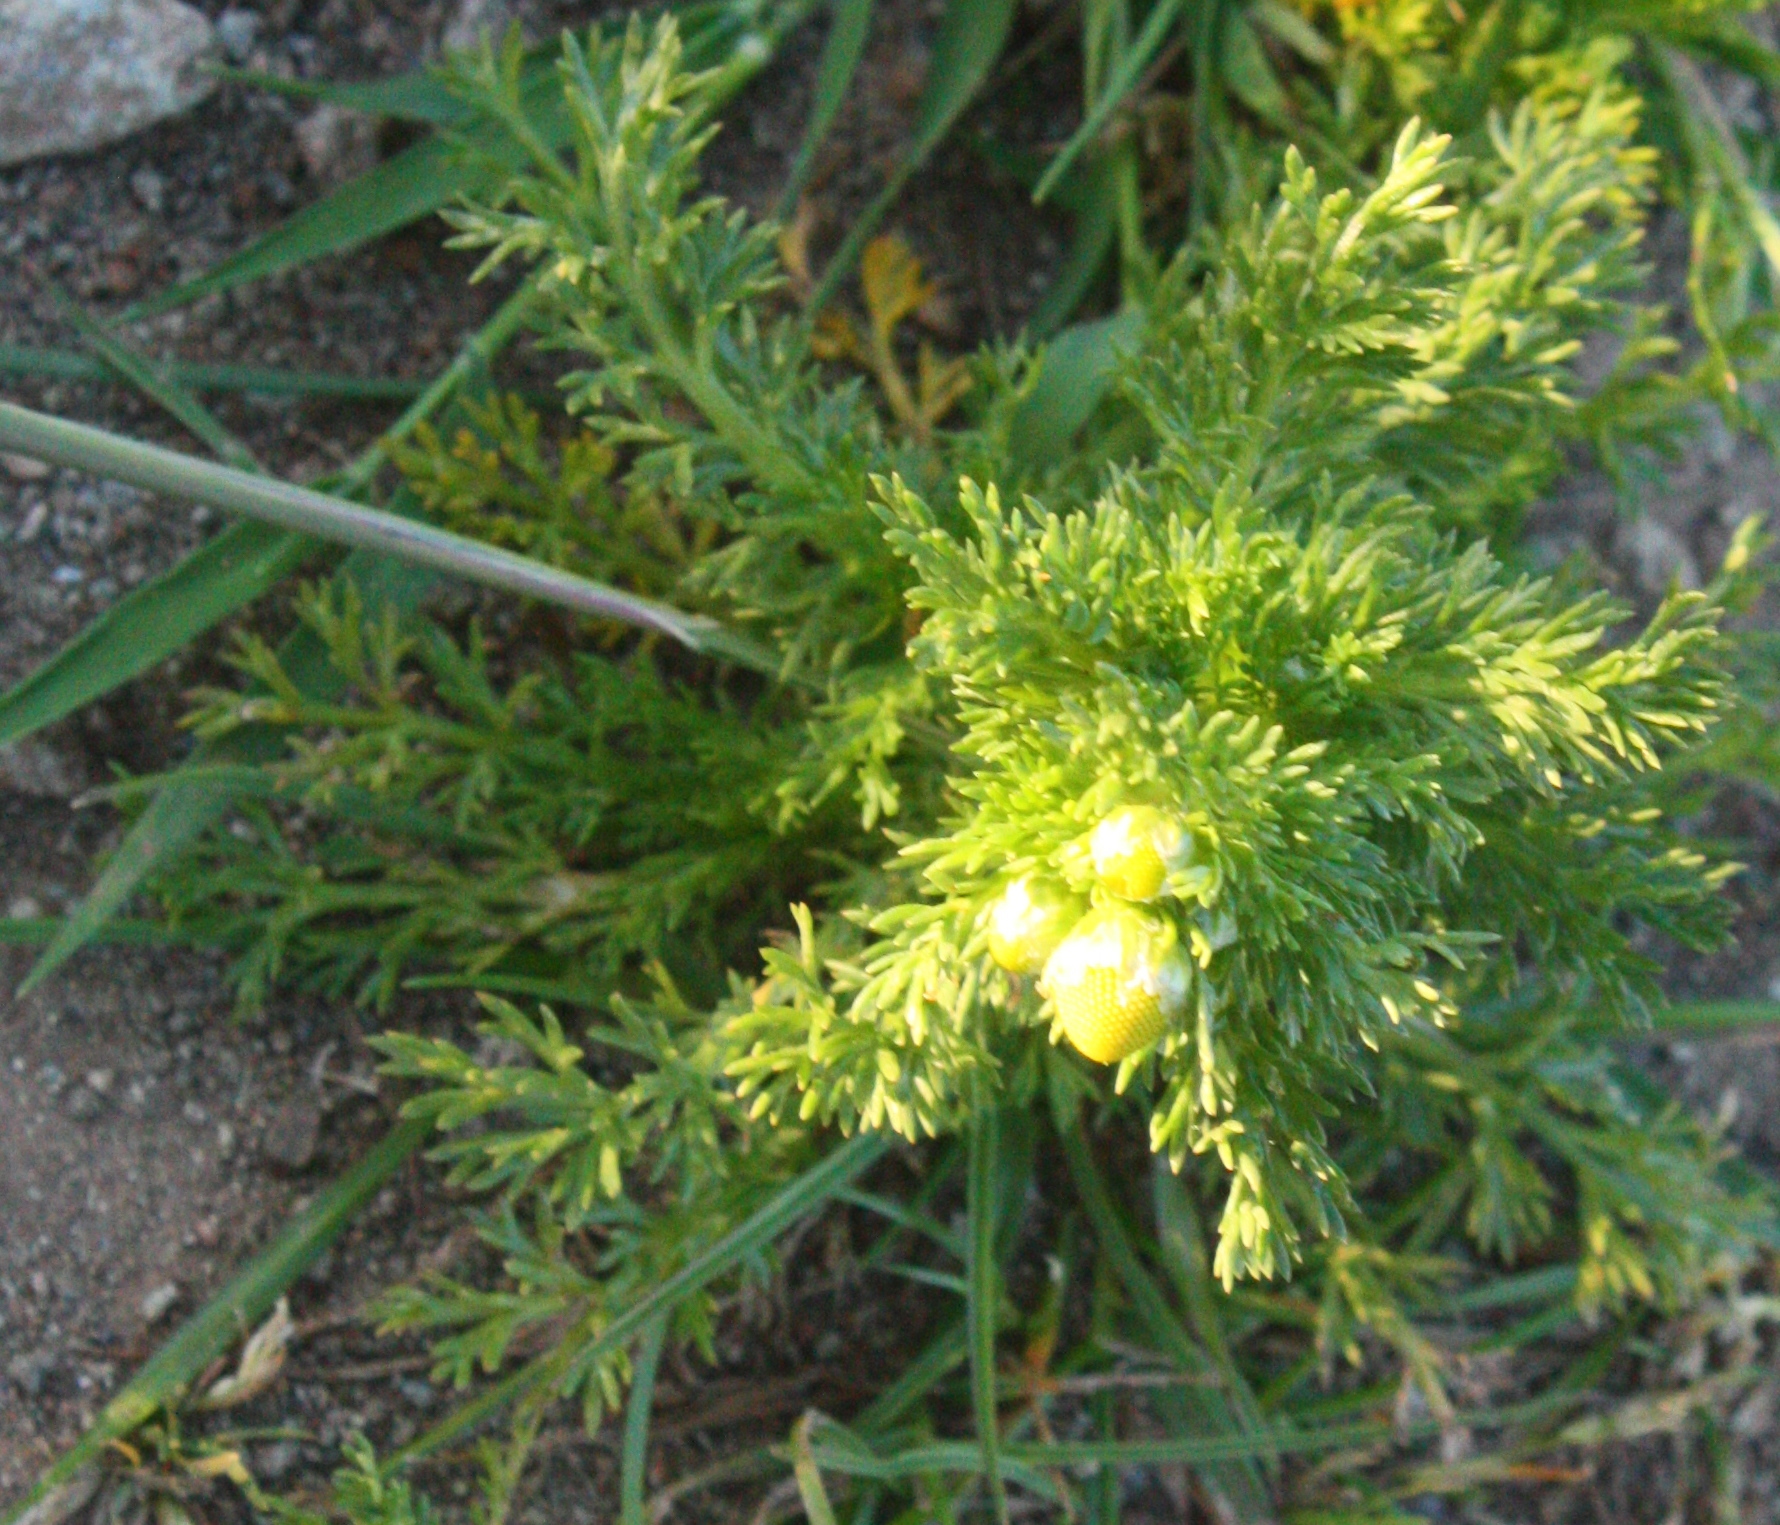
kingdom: Plantae
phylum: Tracheophyta
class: Magnoliopsida
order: Asterales
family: Asteraceae
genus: Matricaria
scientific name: Matricaria discoidea
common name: Disc mayweed
